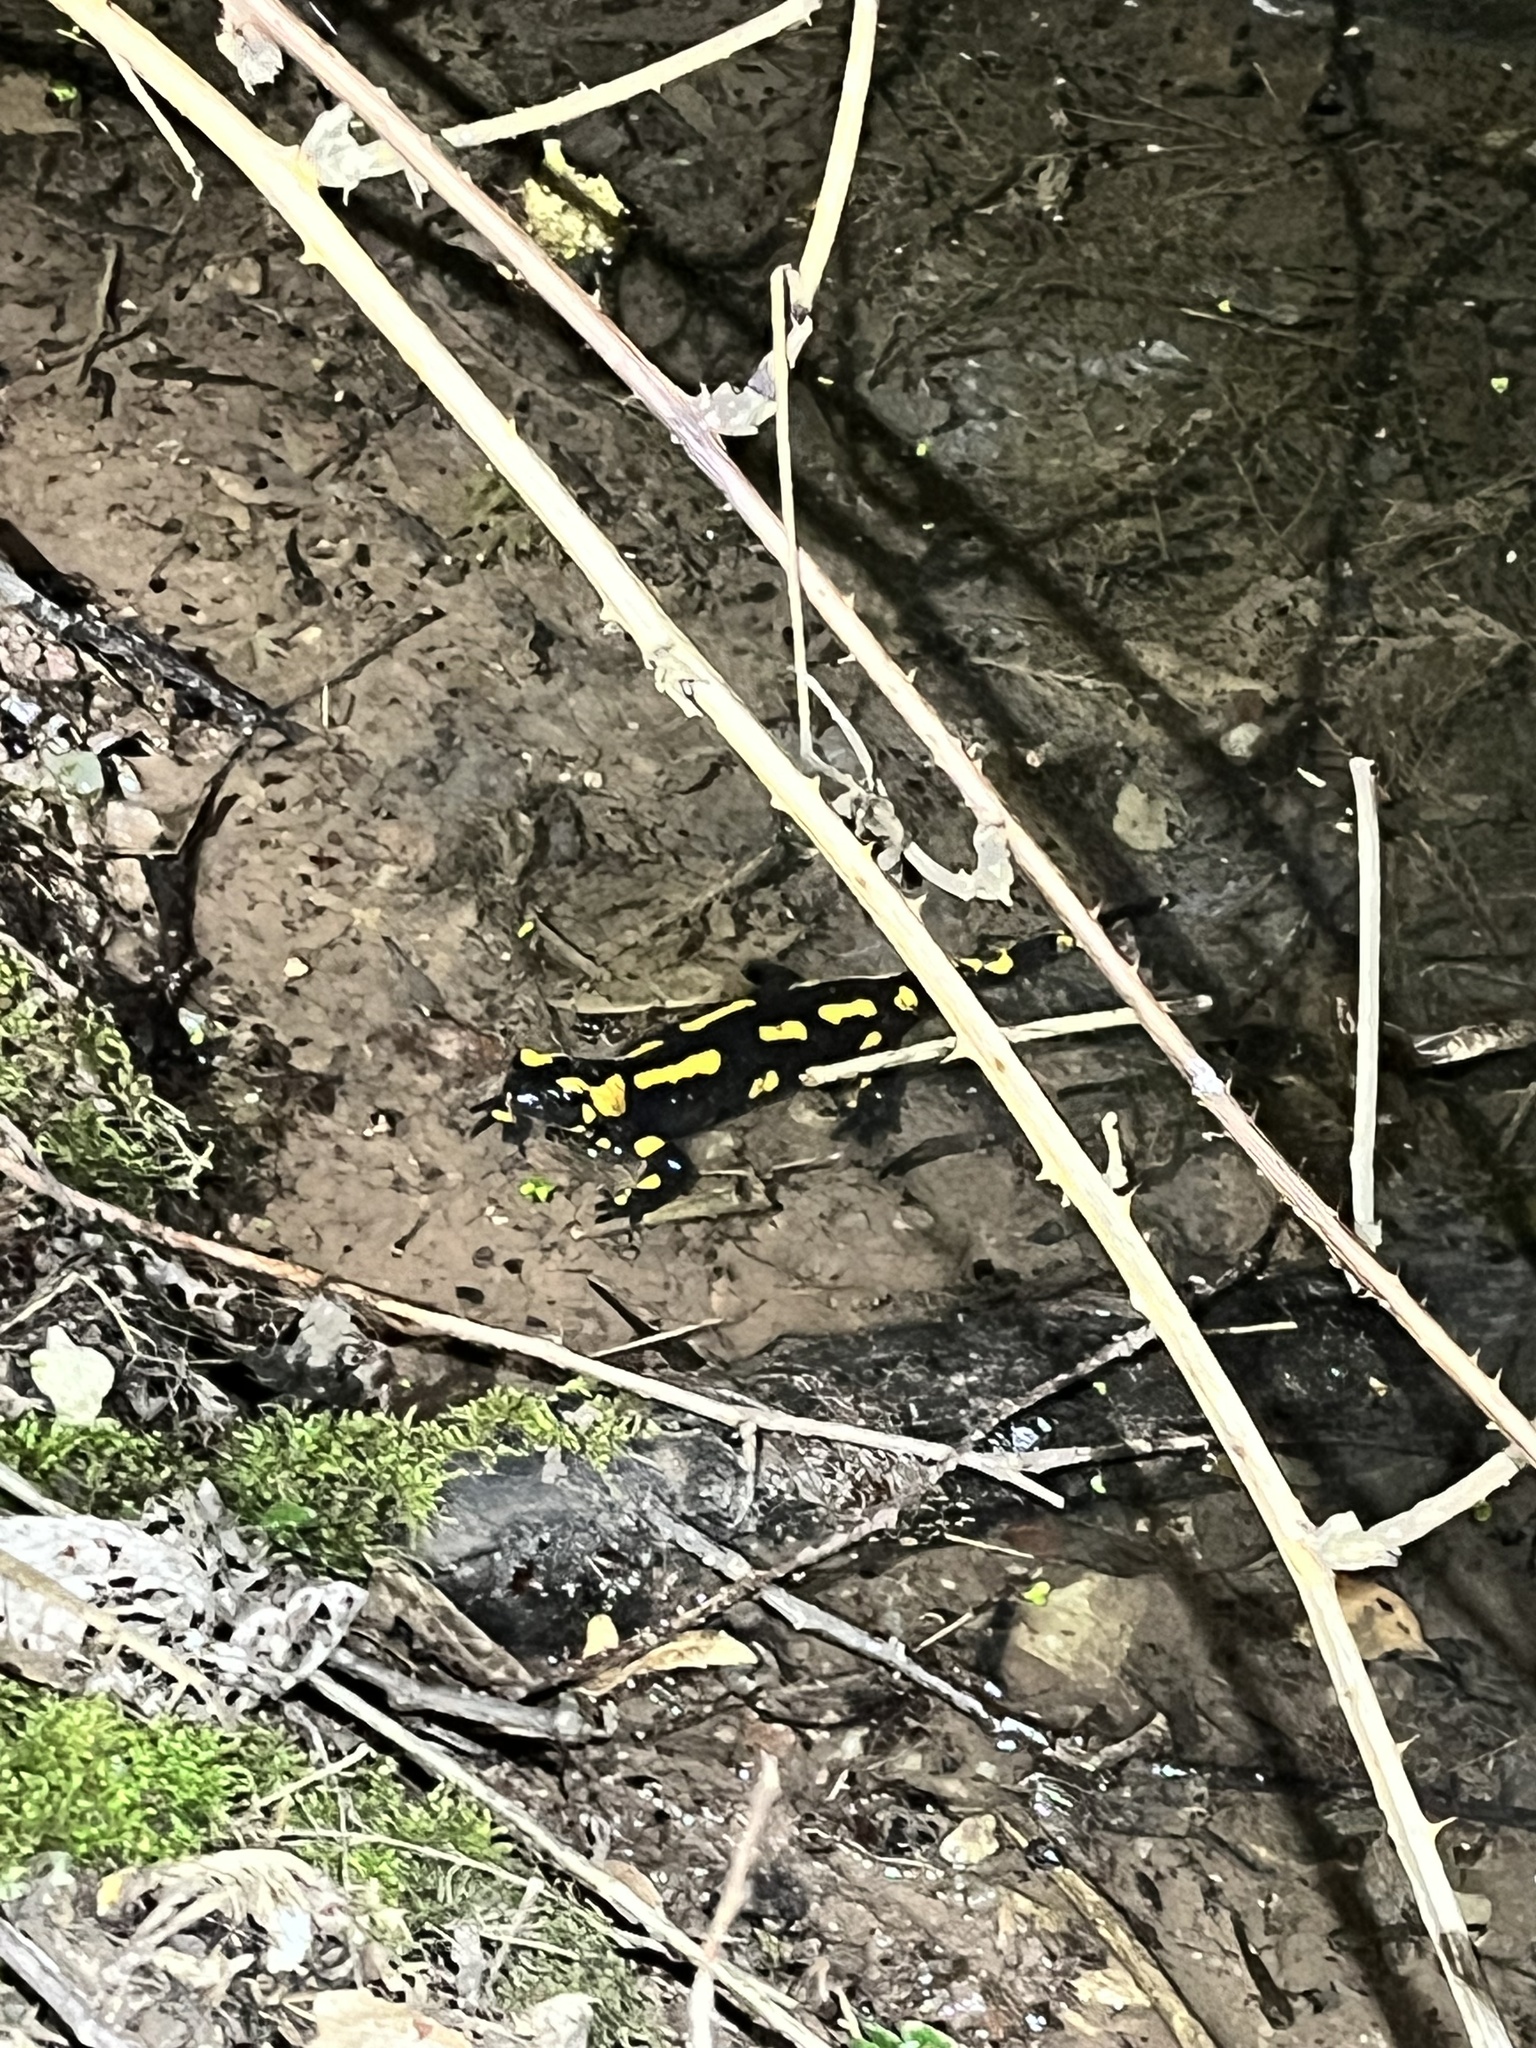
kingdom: Animalia
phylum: Chordata
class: Amphibia
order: Caudata
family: Salamandridae
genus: Salamandra
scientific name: Salamandra salamandra
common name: Fire salamander
